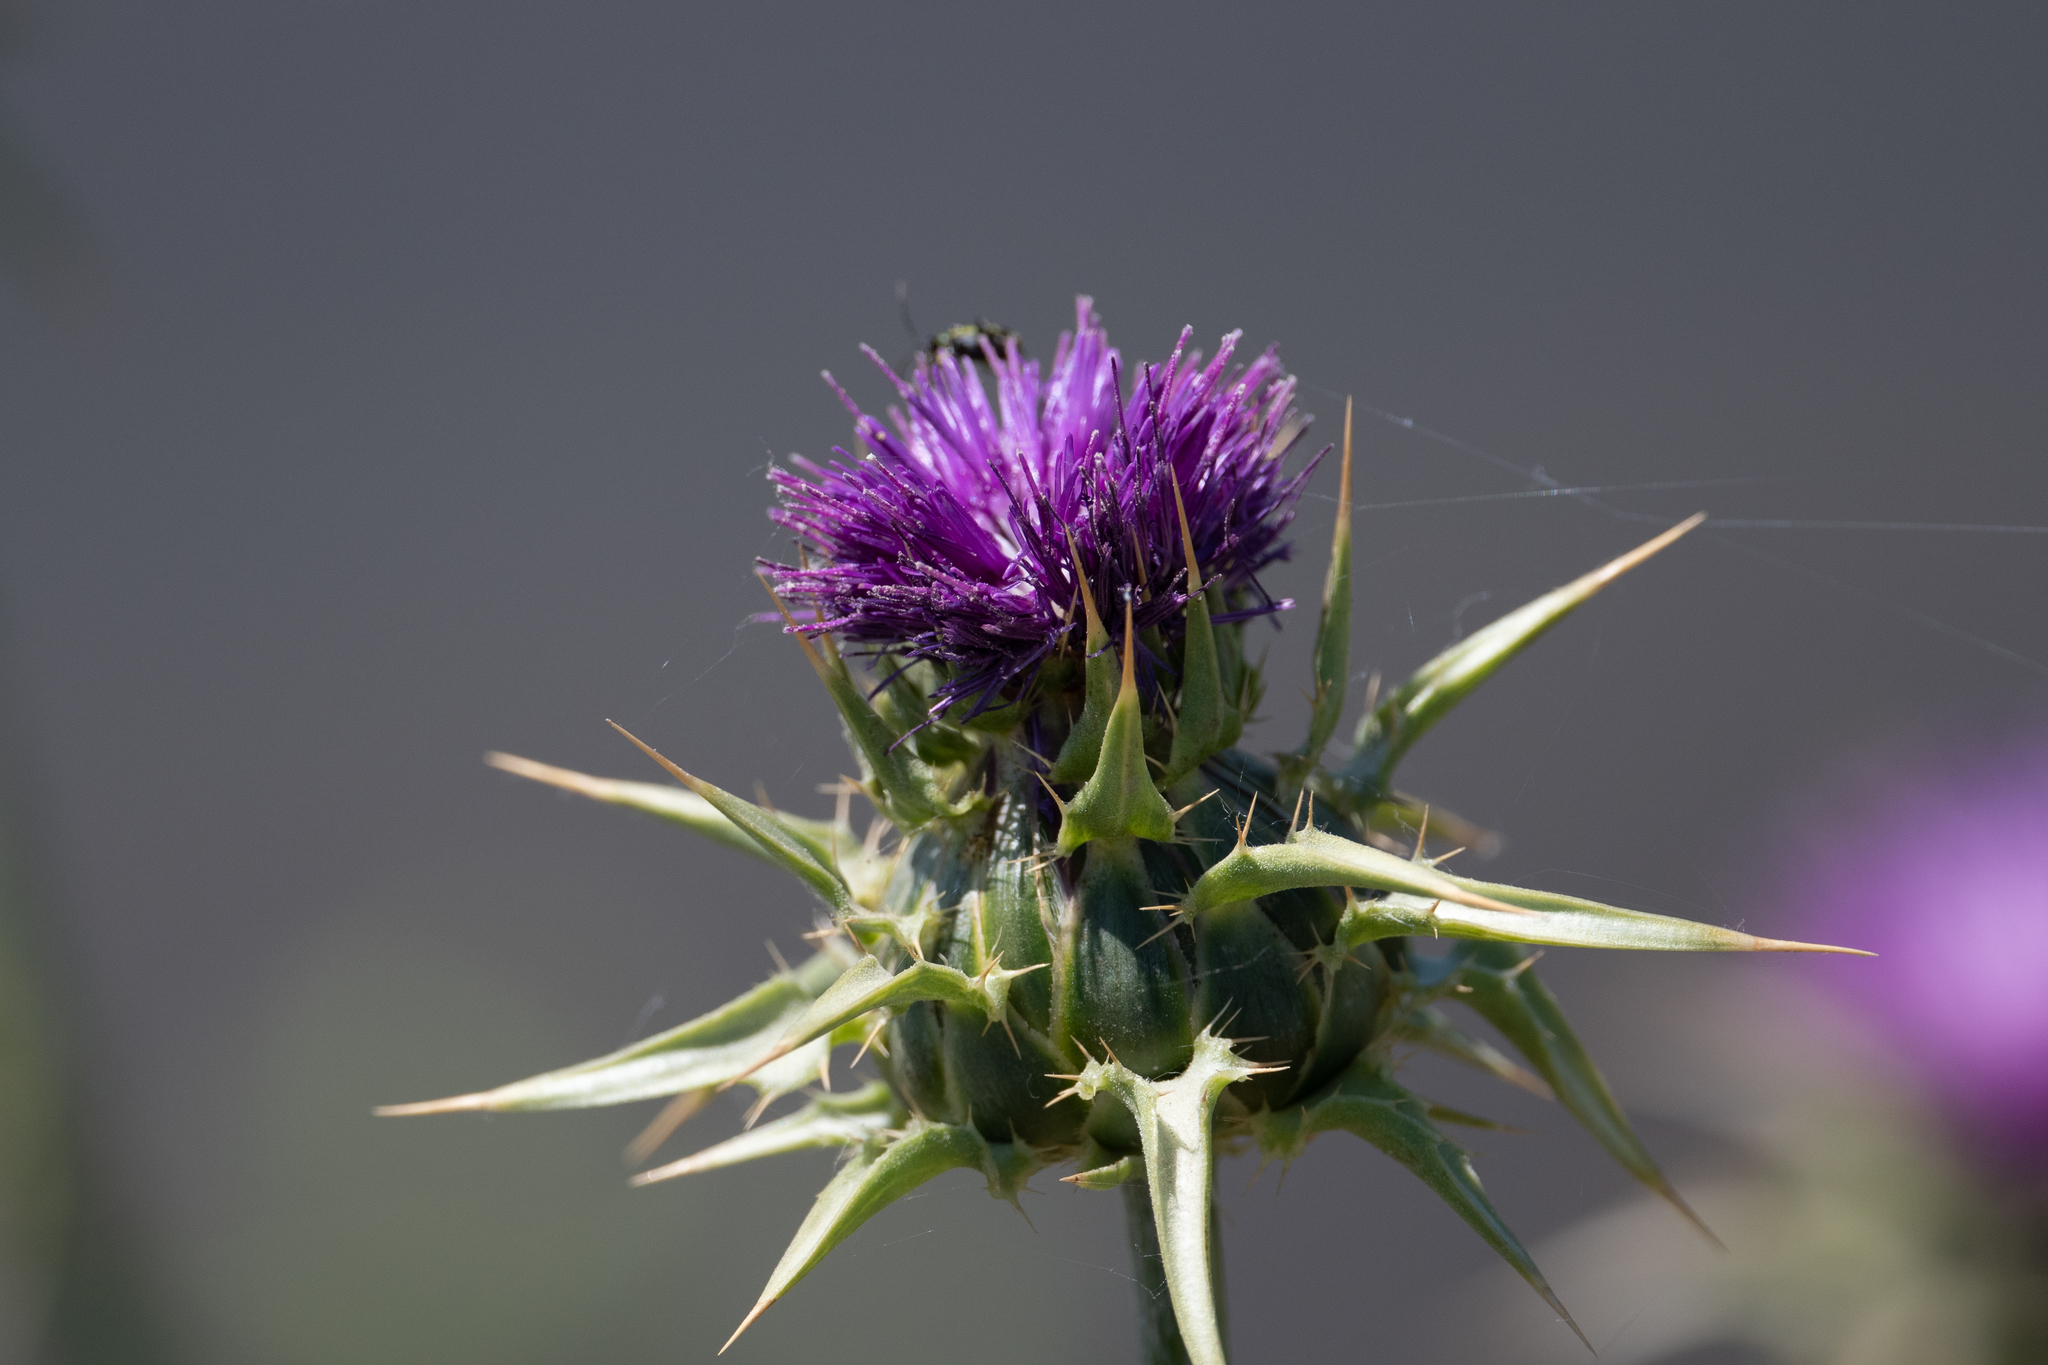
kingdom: Plantae
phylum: Tracheophyta
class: Magnoliopsida
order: Asterales
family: Asteraceae
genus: Silybum
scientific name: Silybum marianum
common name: Milk thistle
